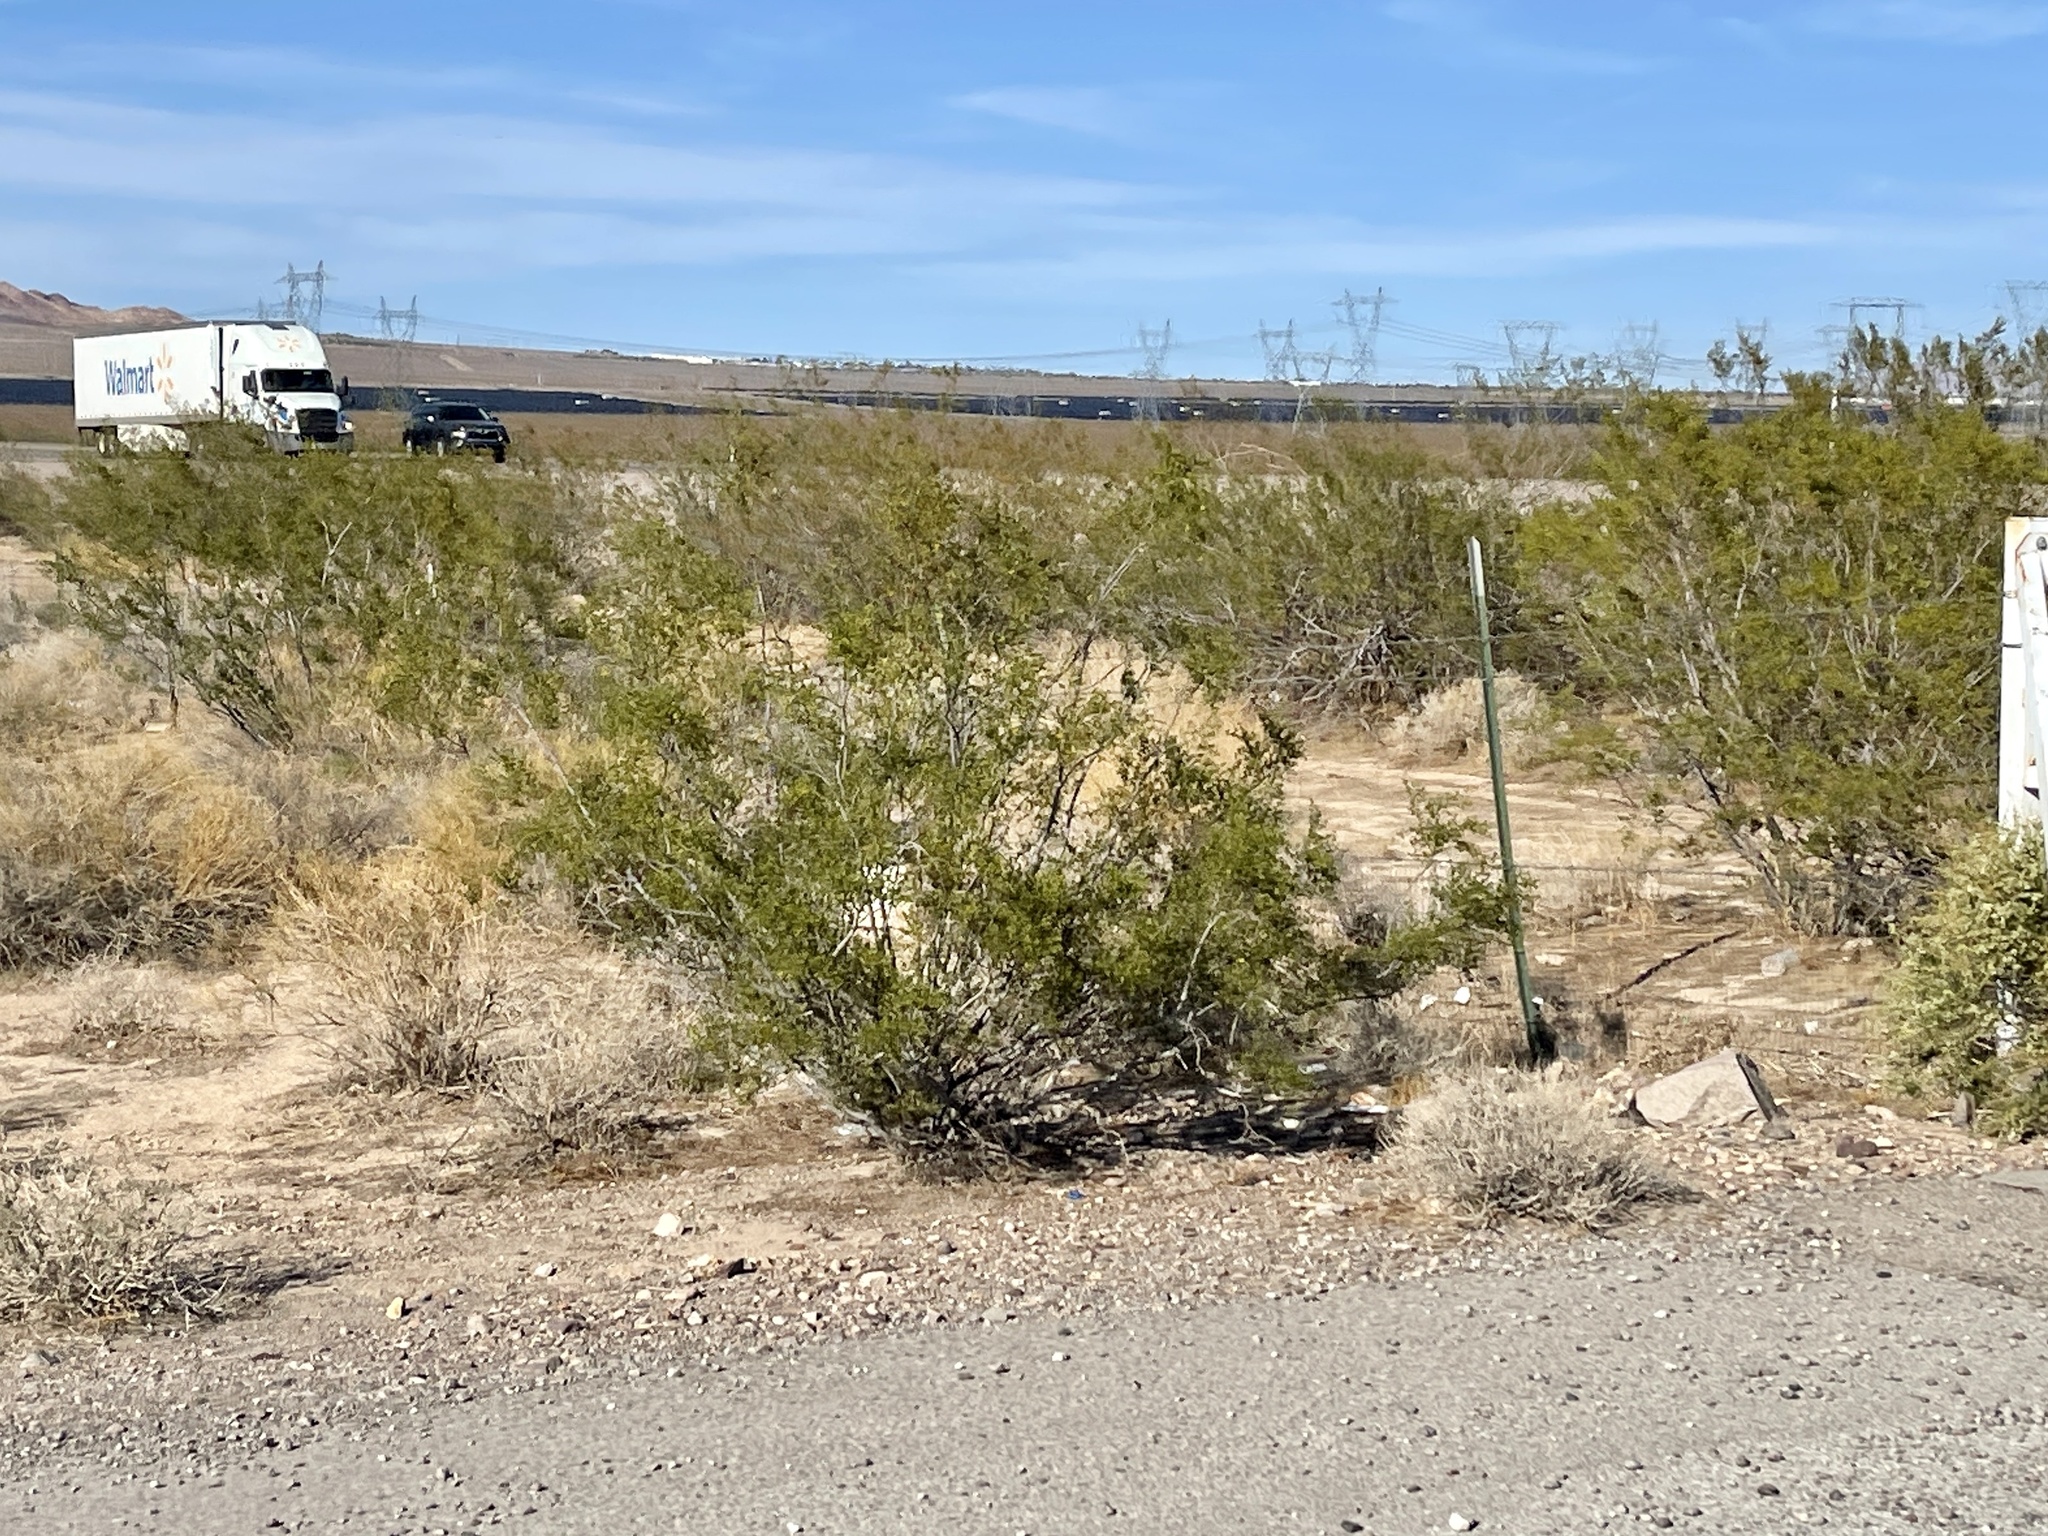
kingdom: Plantae
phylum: Tracheophyta
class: Magnoliopsida
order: Zygophyllales
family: Zygophyllaceae
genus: Larrea
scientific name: Larrea tridentata
